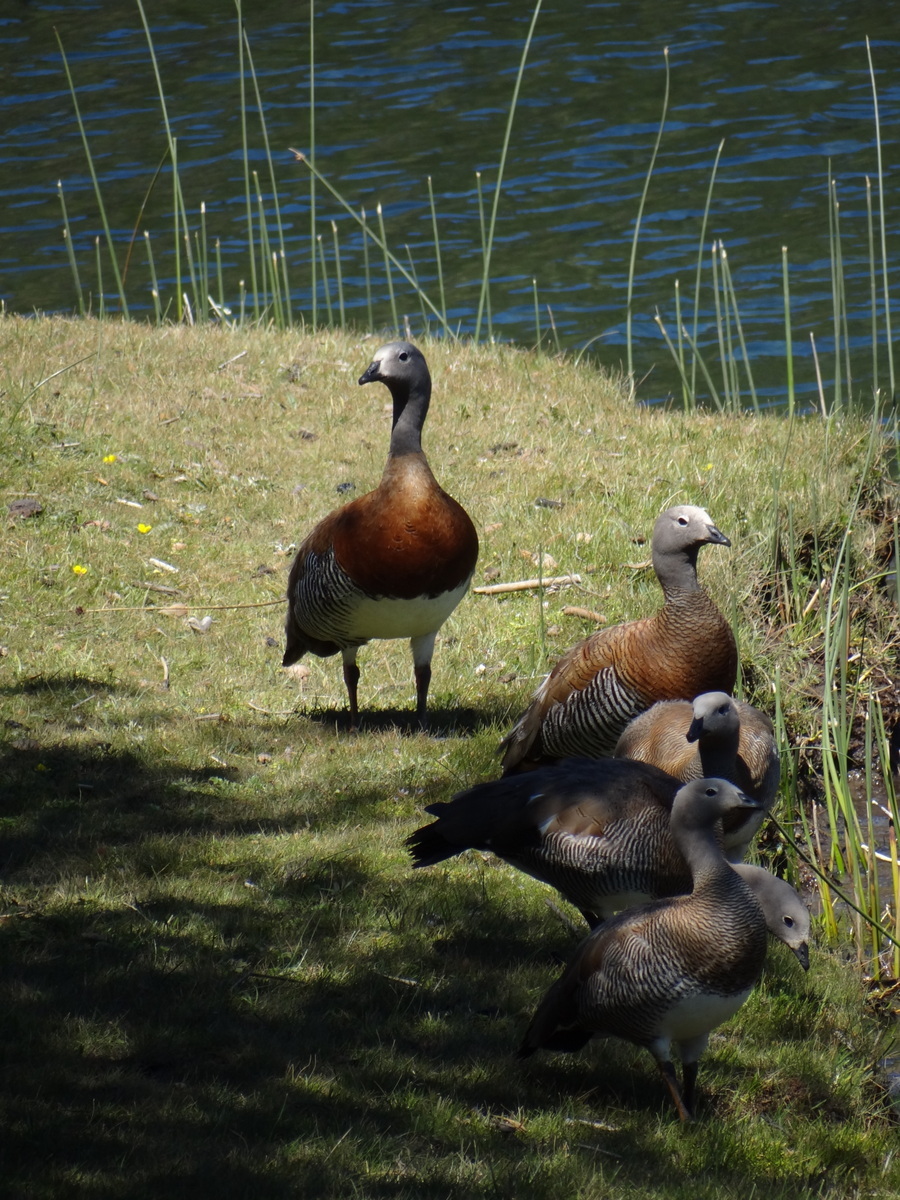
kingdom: Animalia
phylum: Chordata
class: Aves
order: Anseriformes
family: Anatidae
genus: Chloephaga
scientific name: Chloephaga poliocephala
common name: Ashy-headed goose
